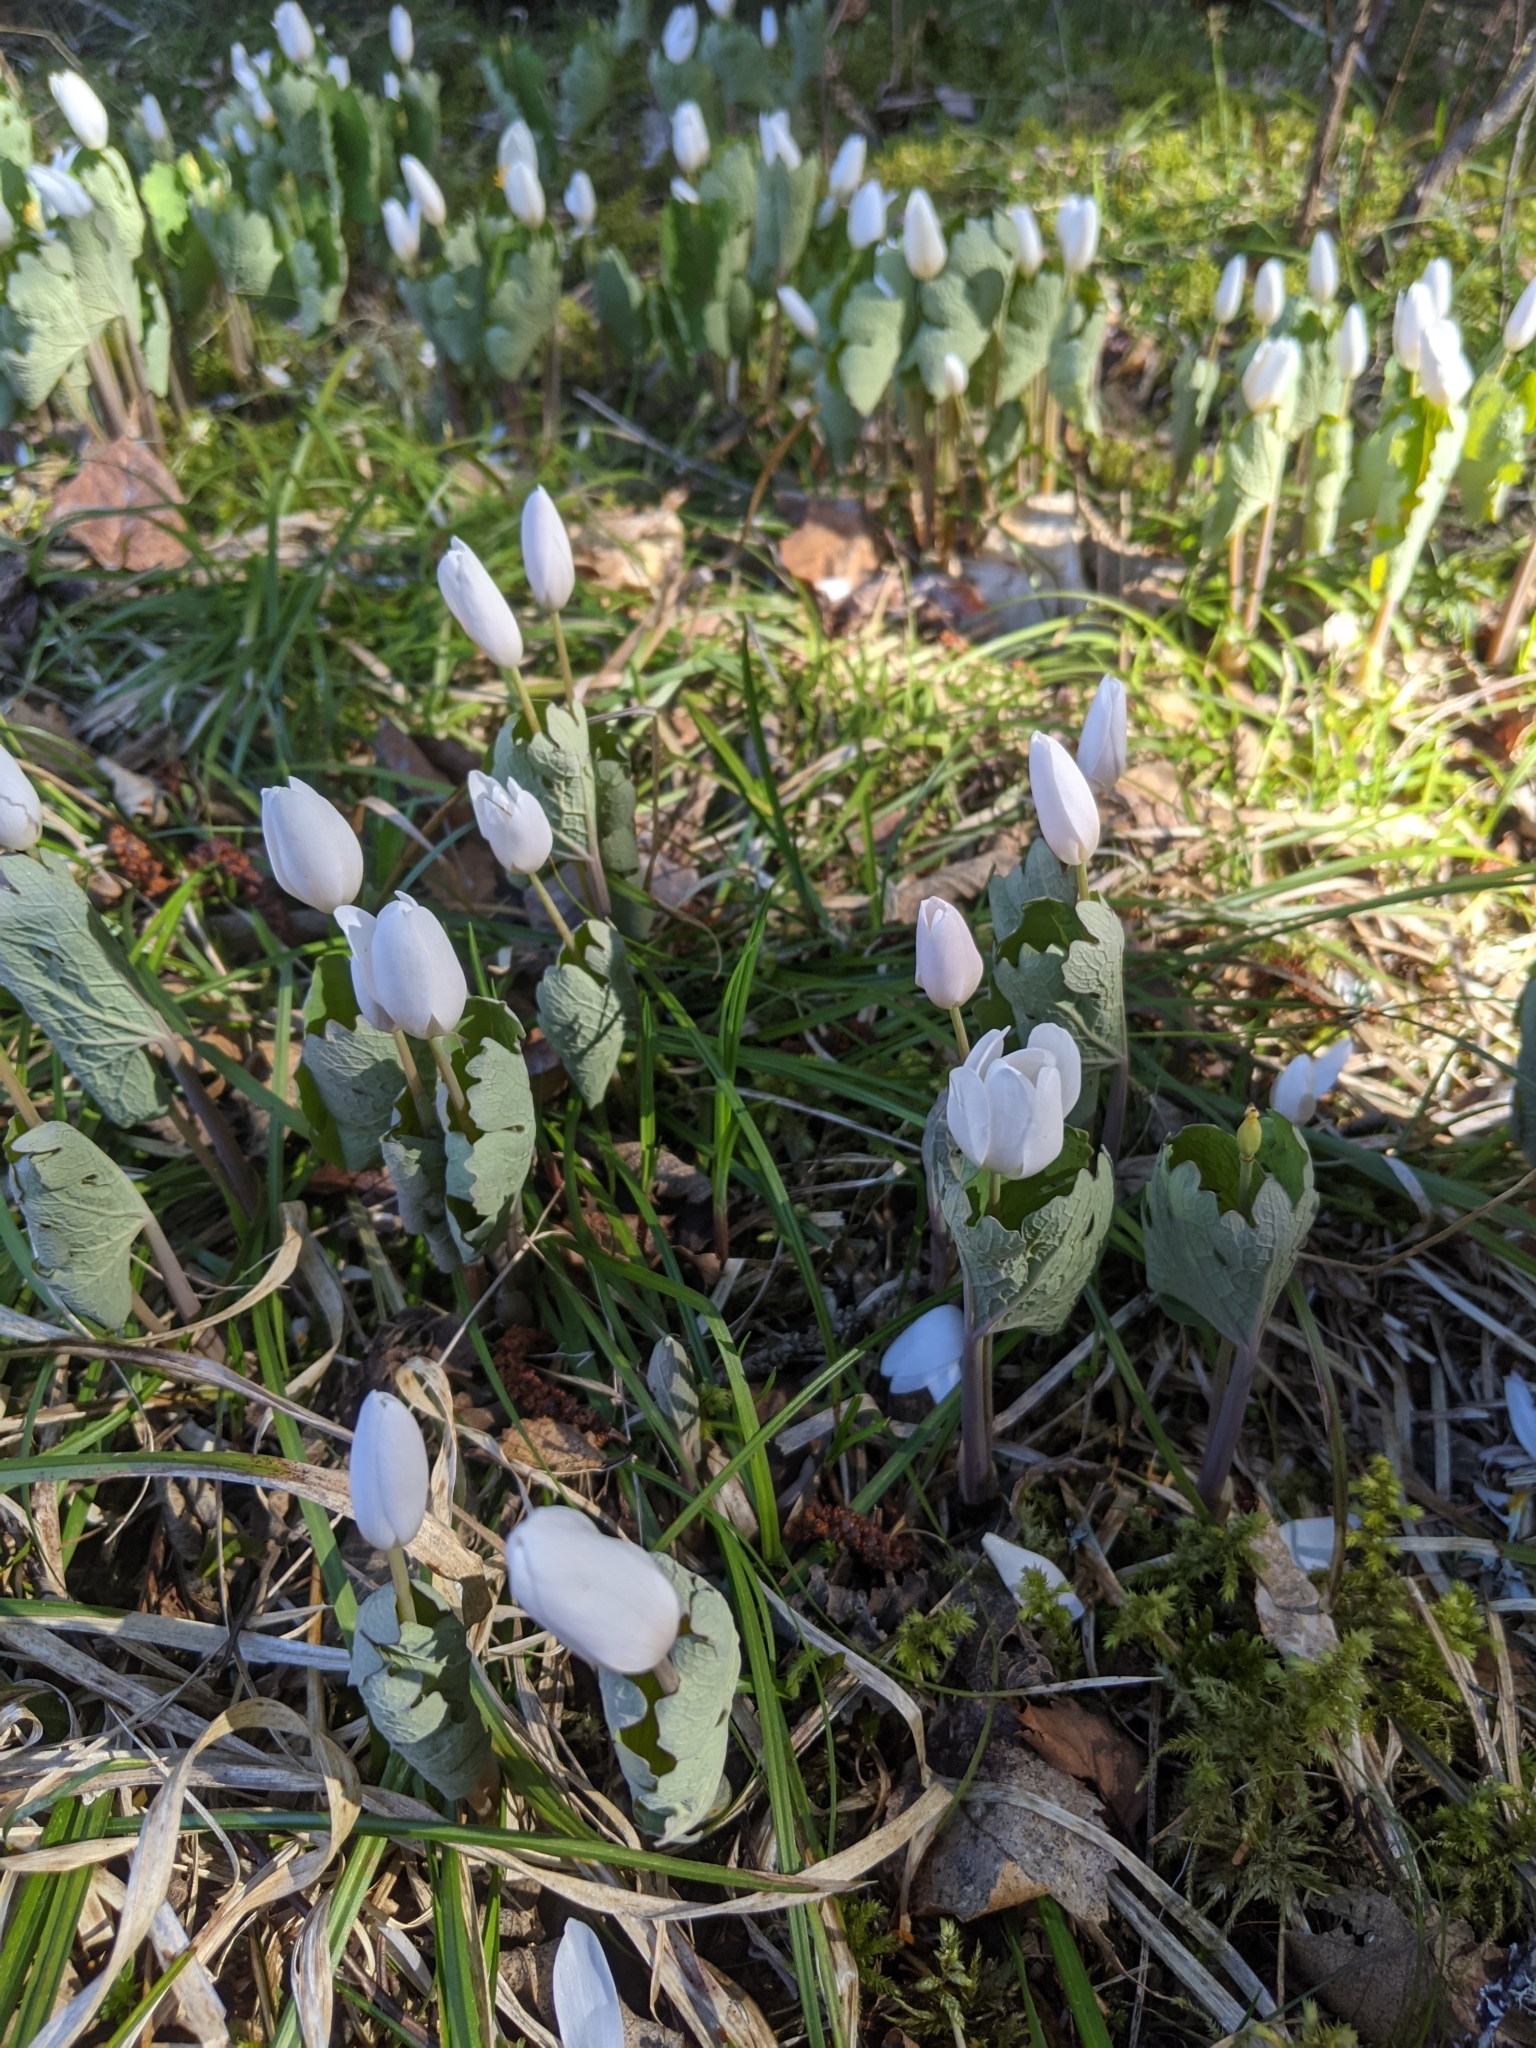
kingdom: Plantae
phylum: Tracheophyta
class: Magnoliopsida
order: Ranunculales
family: Papaveraceae
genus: Sanguinaria
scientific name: Sanguinaria canadensis
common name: Bloodroot
